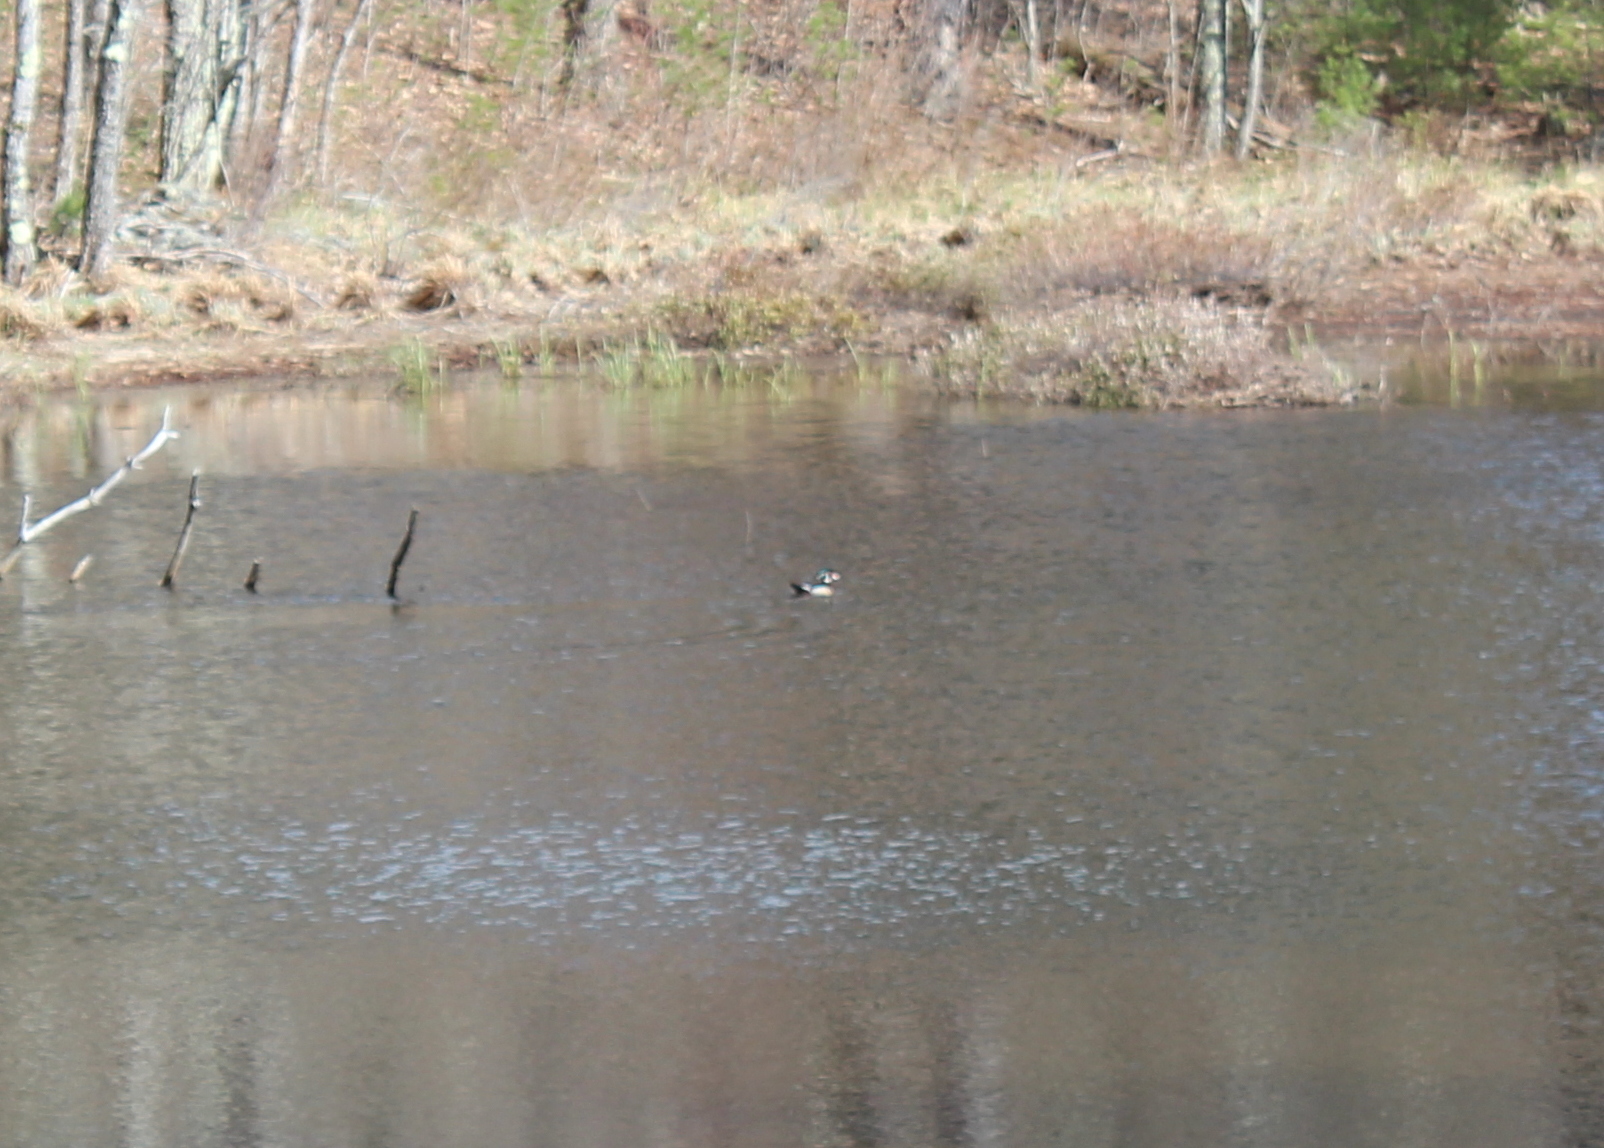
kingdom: Animalia
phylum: Chordata
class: Aves
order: Anseriformes
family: Anatidae
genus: Aix
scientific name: Aix sponsa
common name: Wood duck
